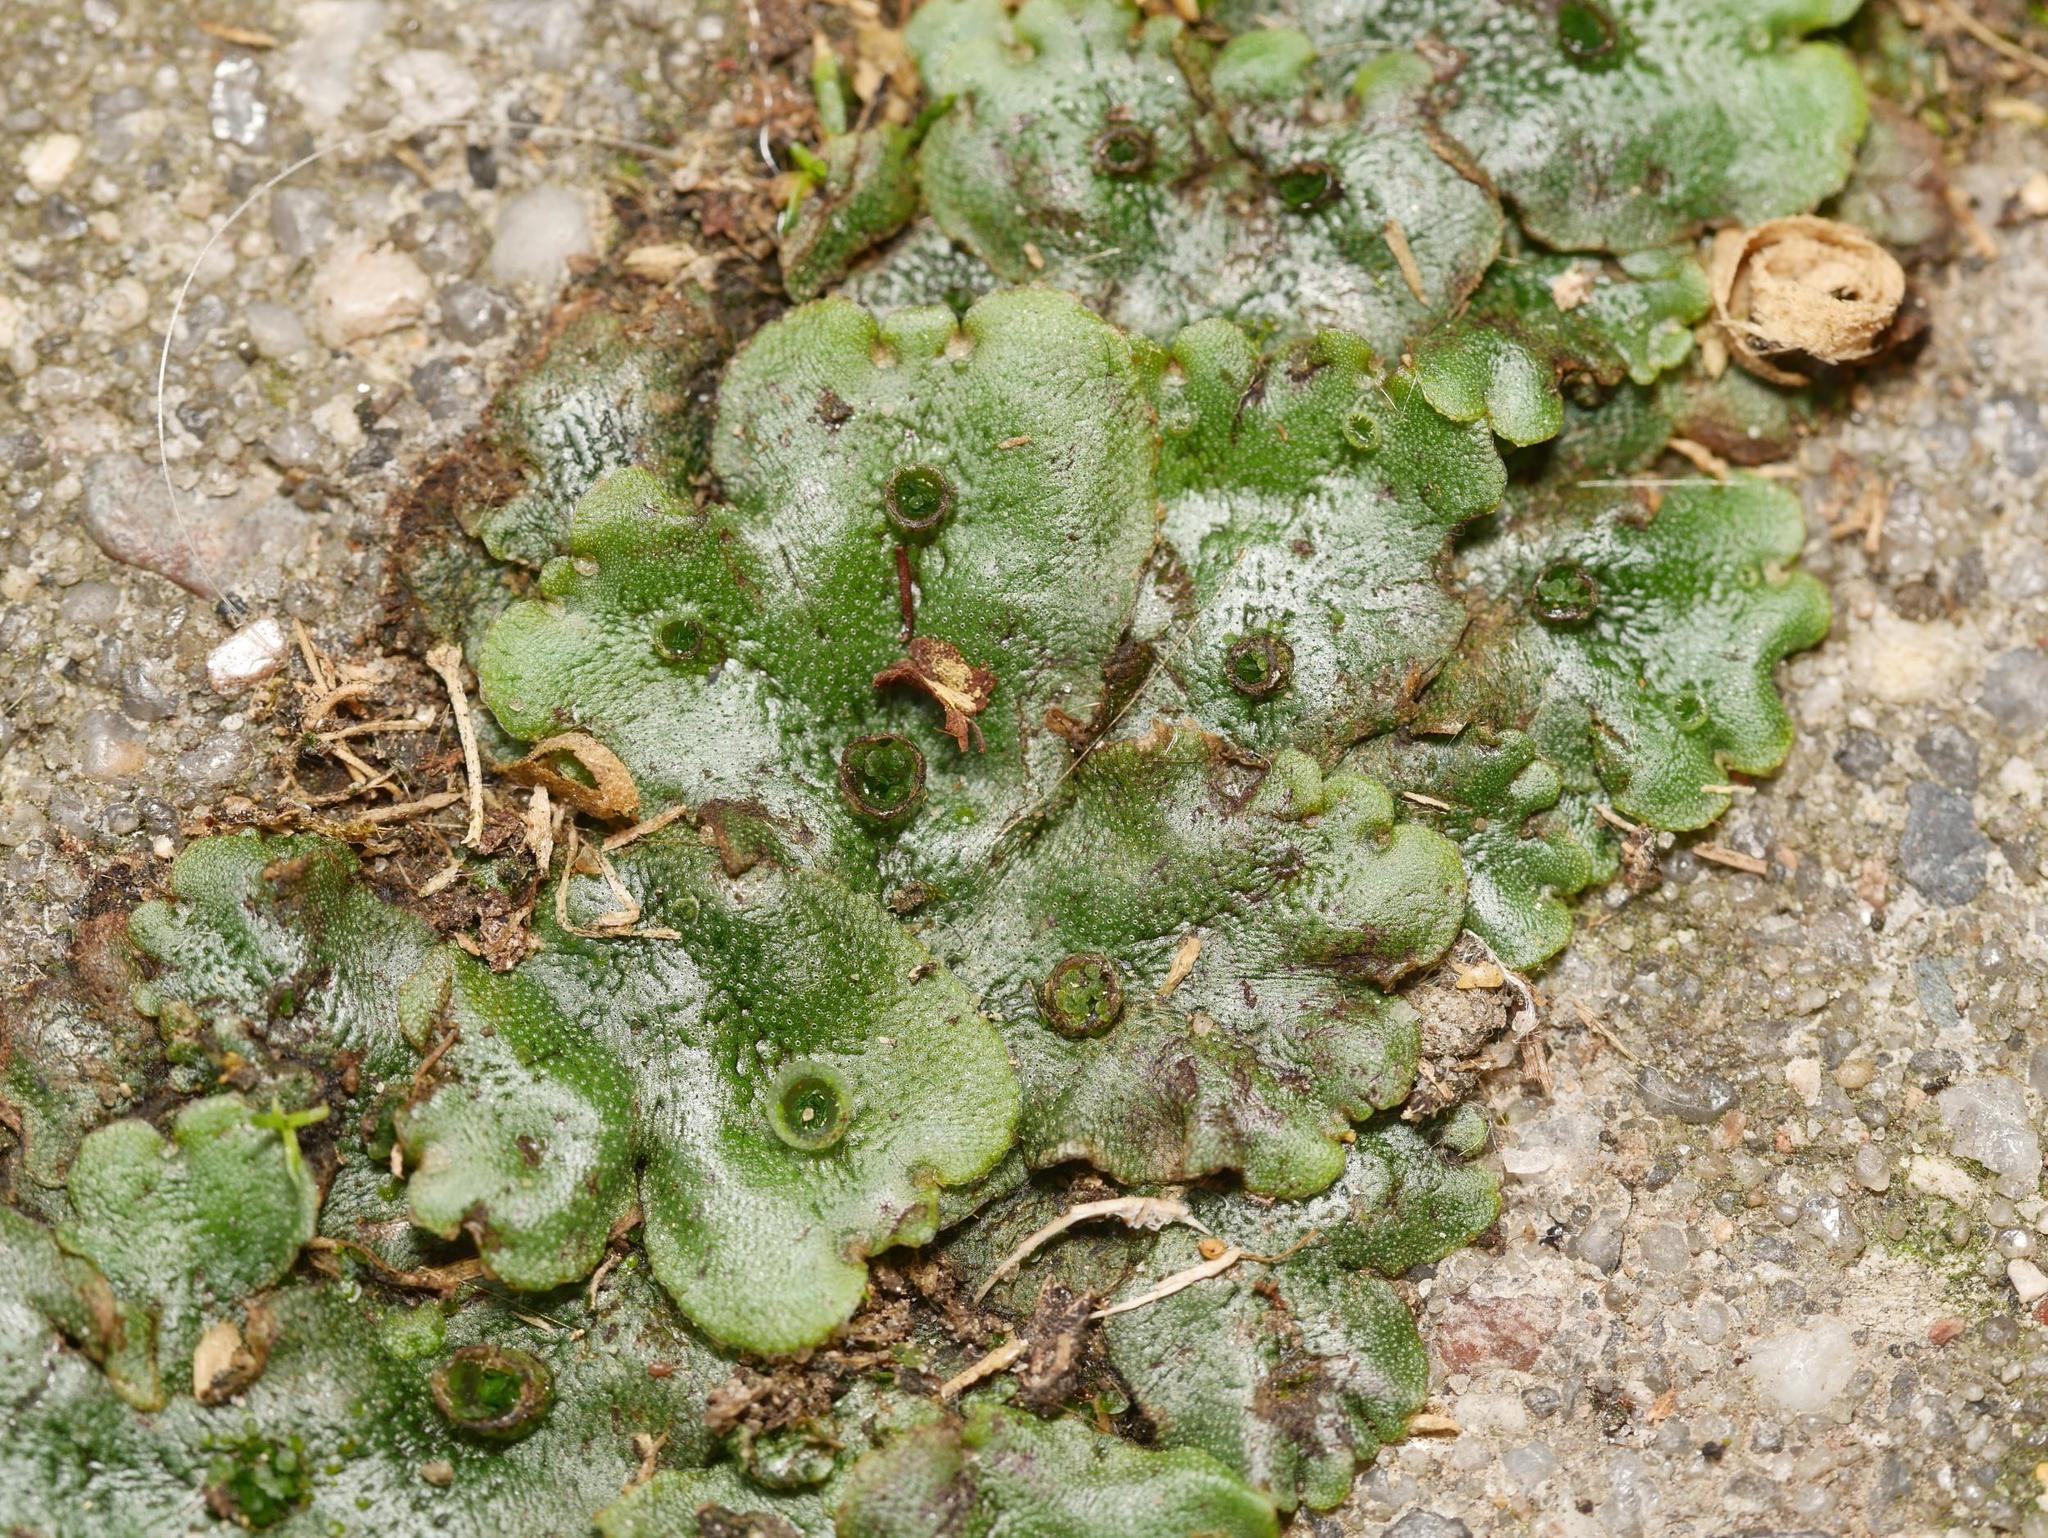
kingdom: Plantae
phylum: Marchantiophyta
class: Marchantiopsida
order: Marchantiales
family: Marchantiaceae
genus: Marchantia
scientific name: Marchantia polymorpha
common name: Common liverwort
